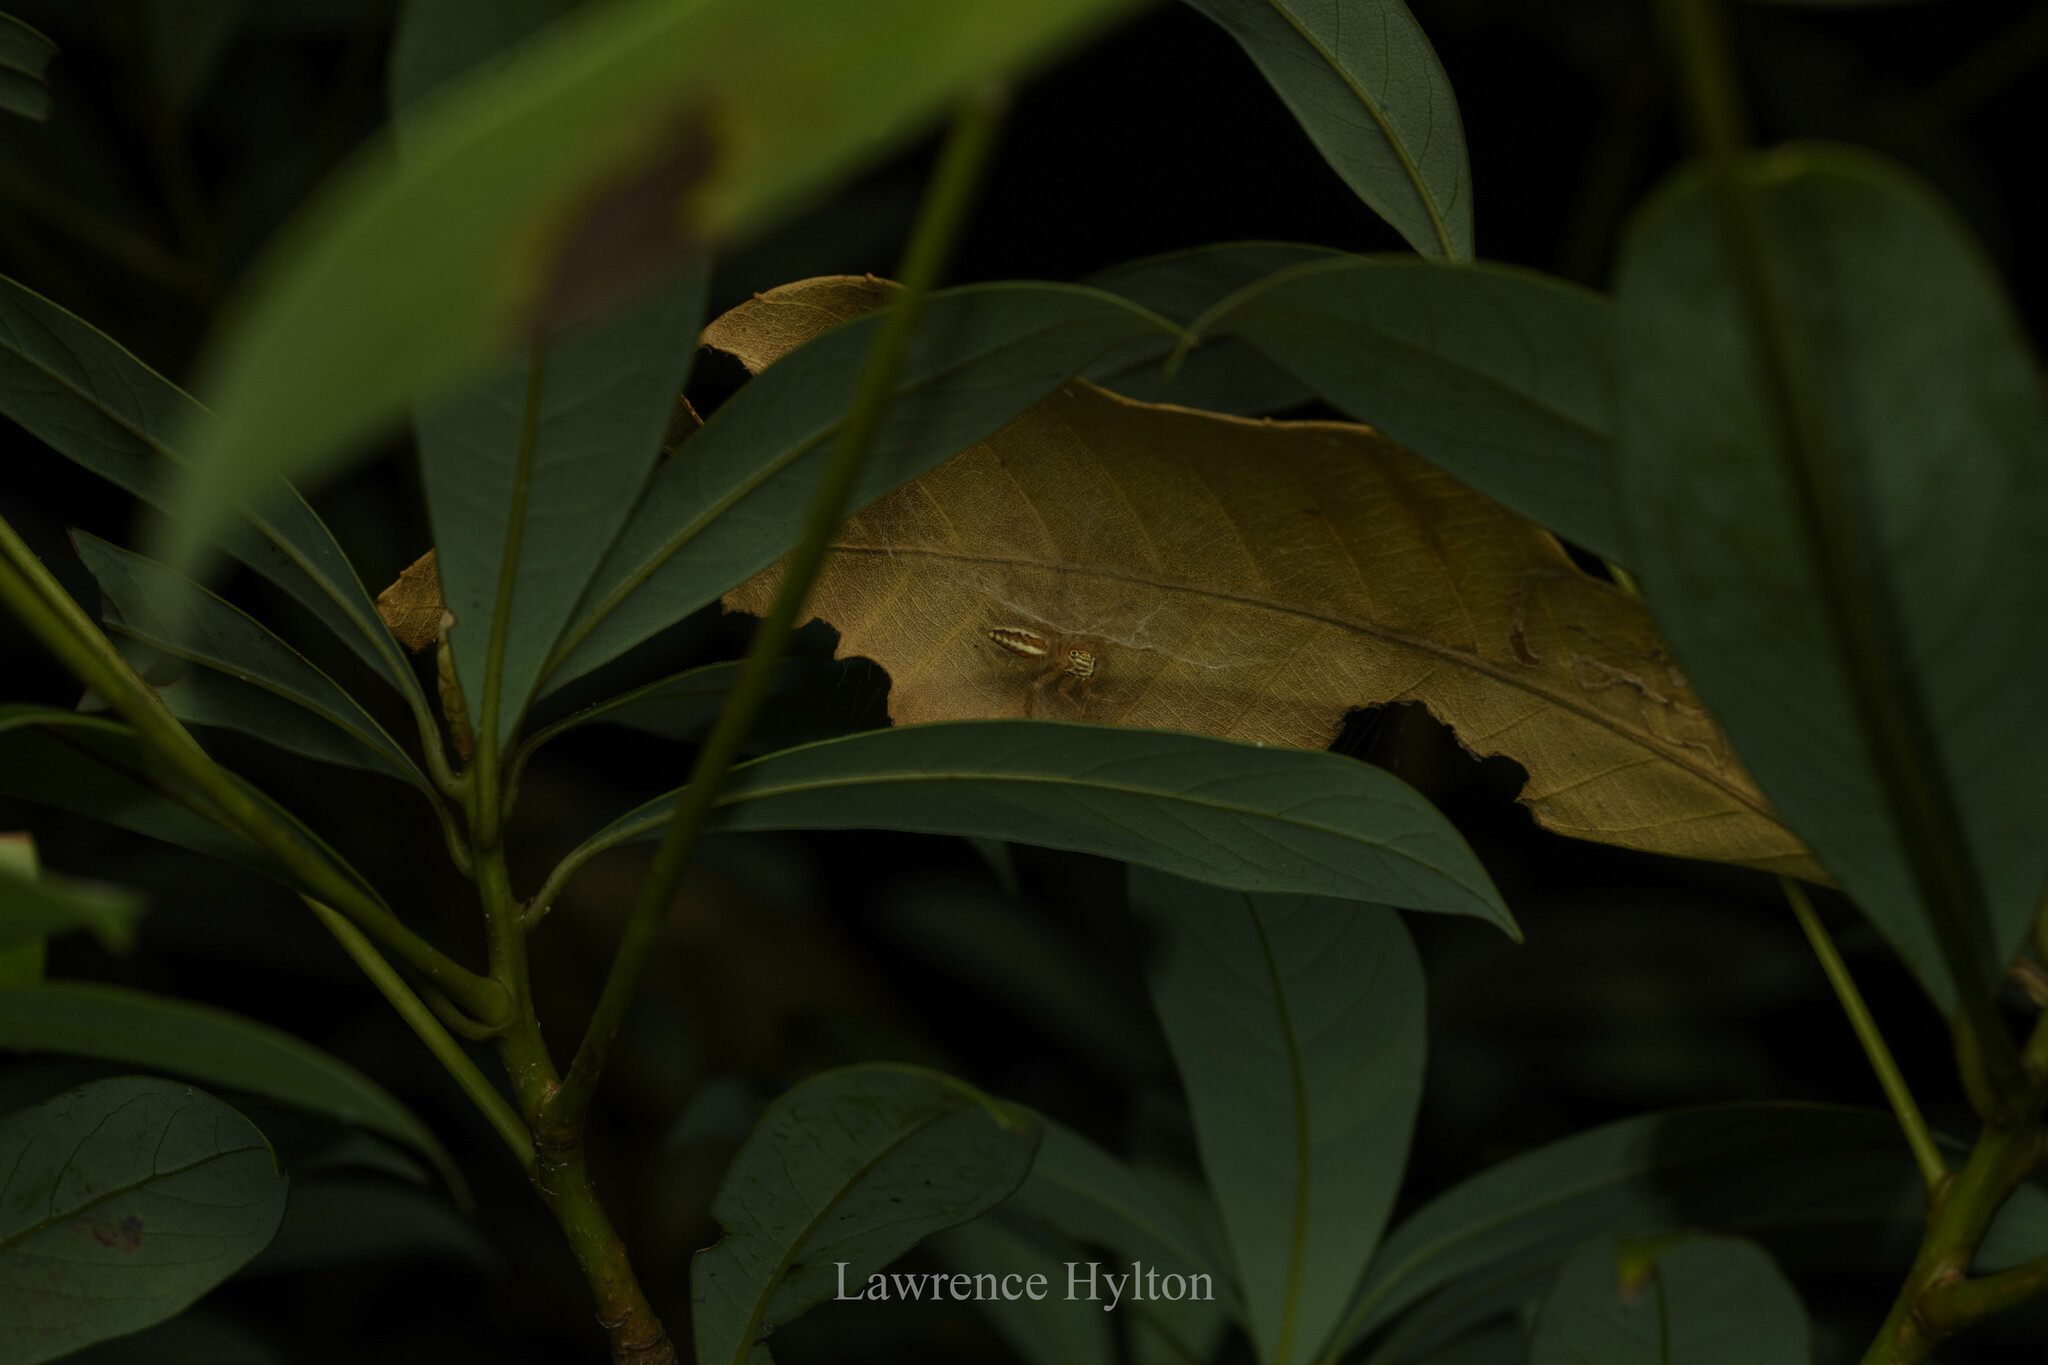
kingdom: Animalia
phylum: Arthropoda
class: Arachnida
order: Araneae
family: Salticidae
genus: Telamonia
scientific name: Telamonia caprina
